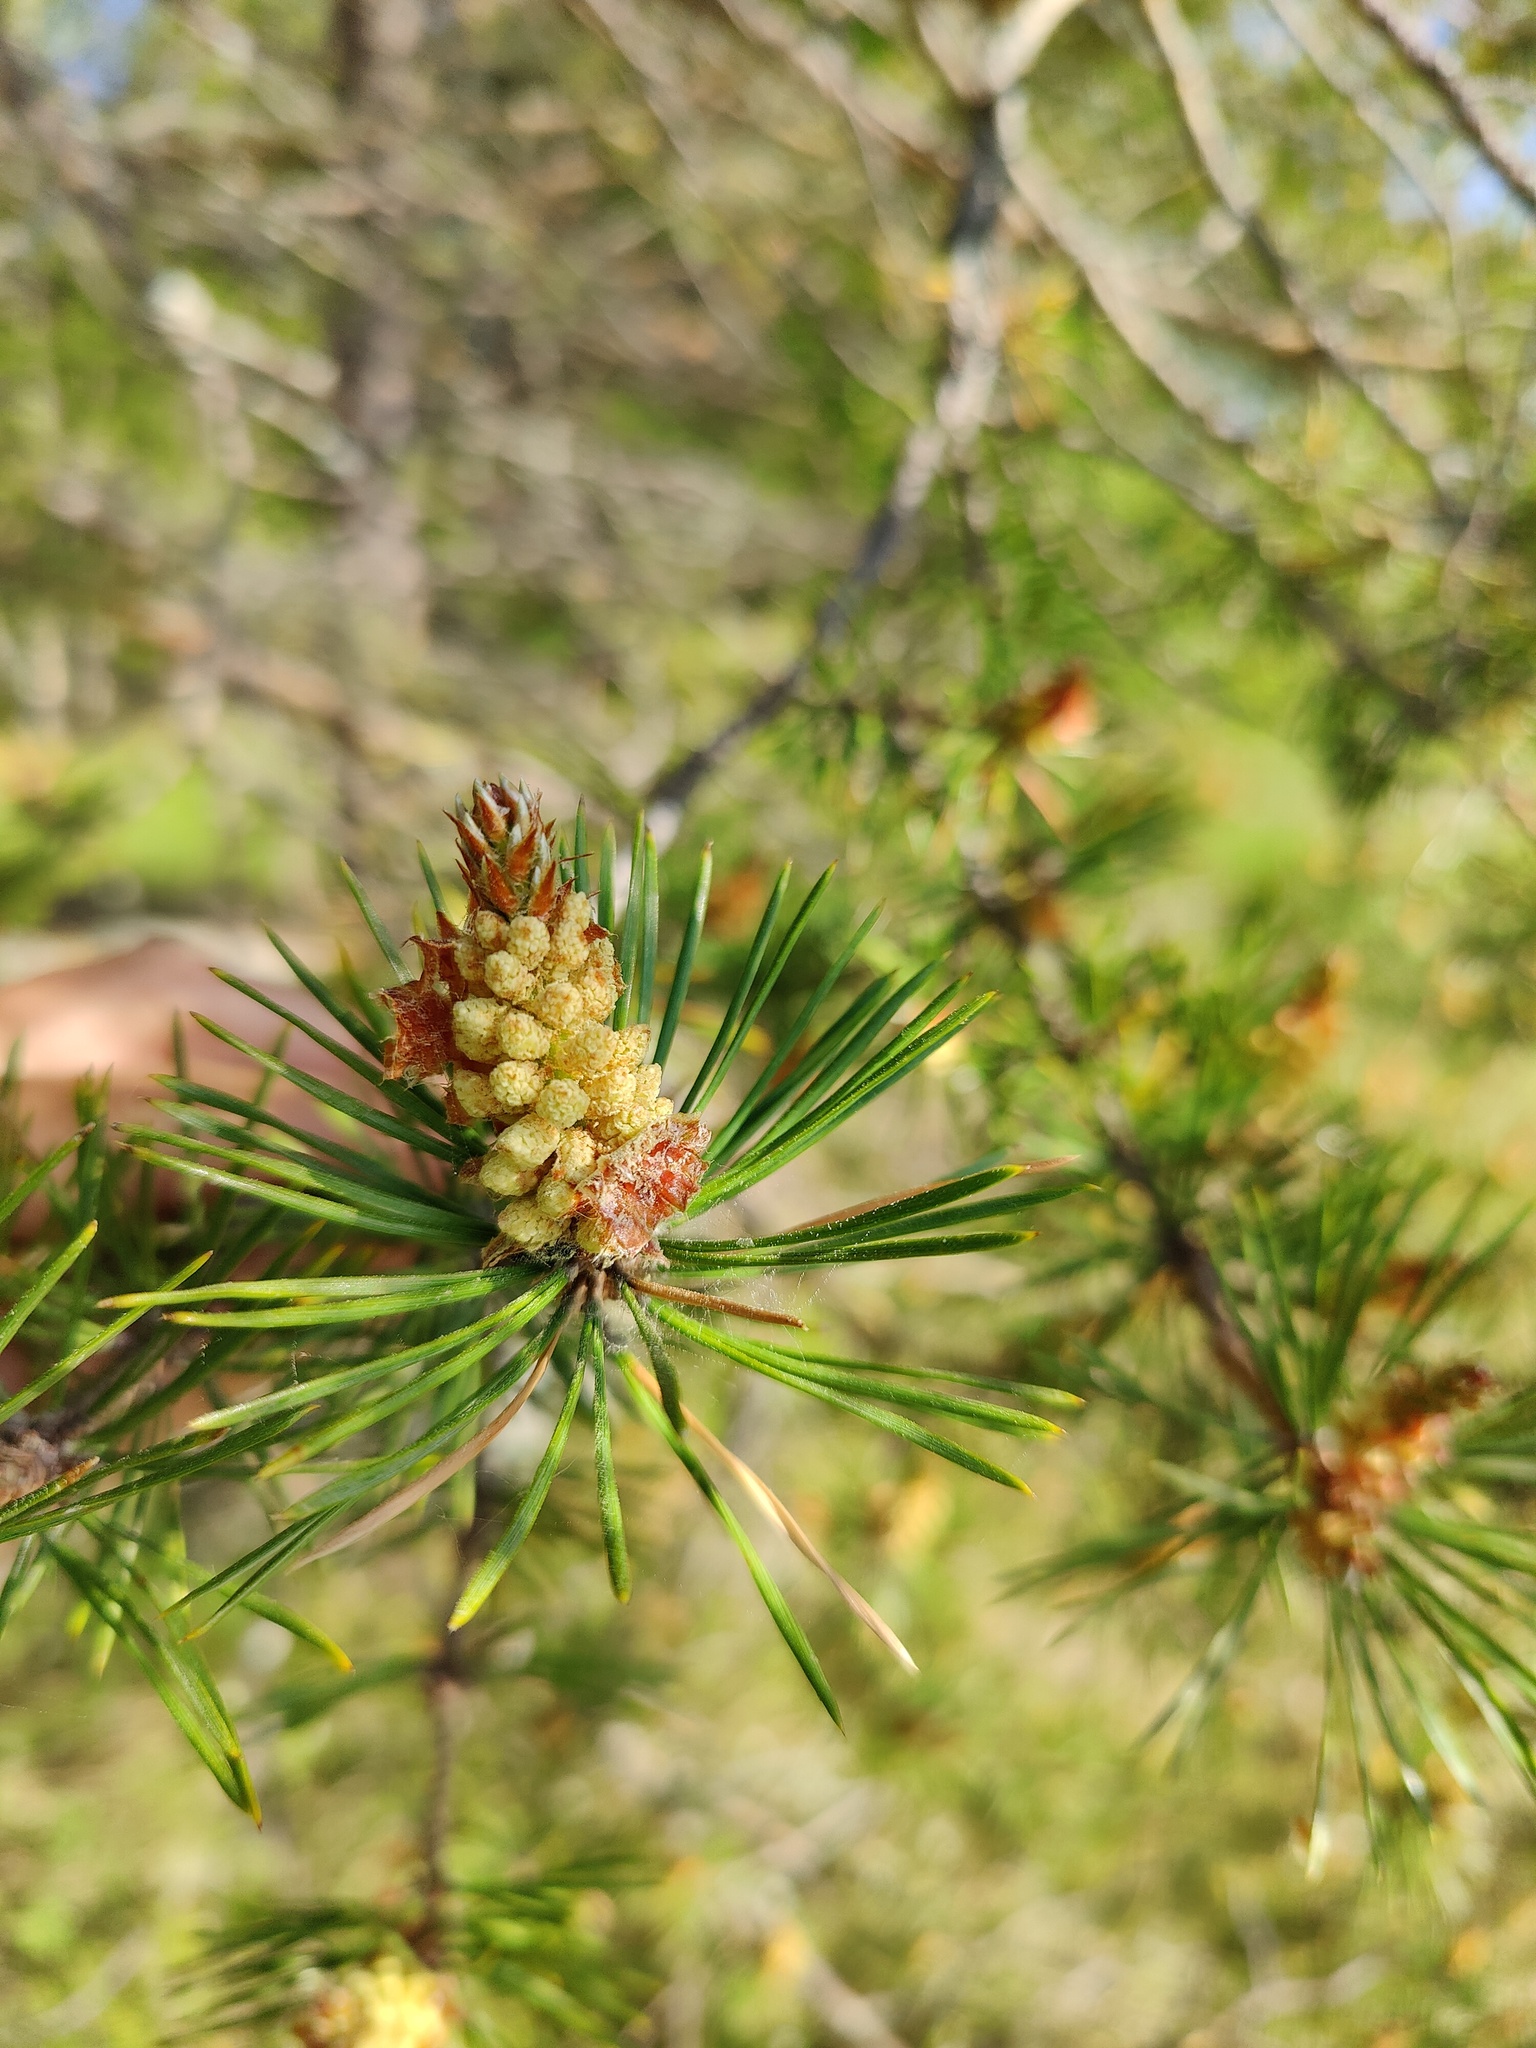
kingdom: Plantae
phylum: Tracheophyta
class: Pinopsida
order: Pinales
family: Pinaceae
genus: Pinus
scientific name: Pinus sylvestris
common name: Scots pine
